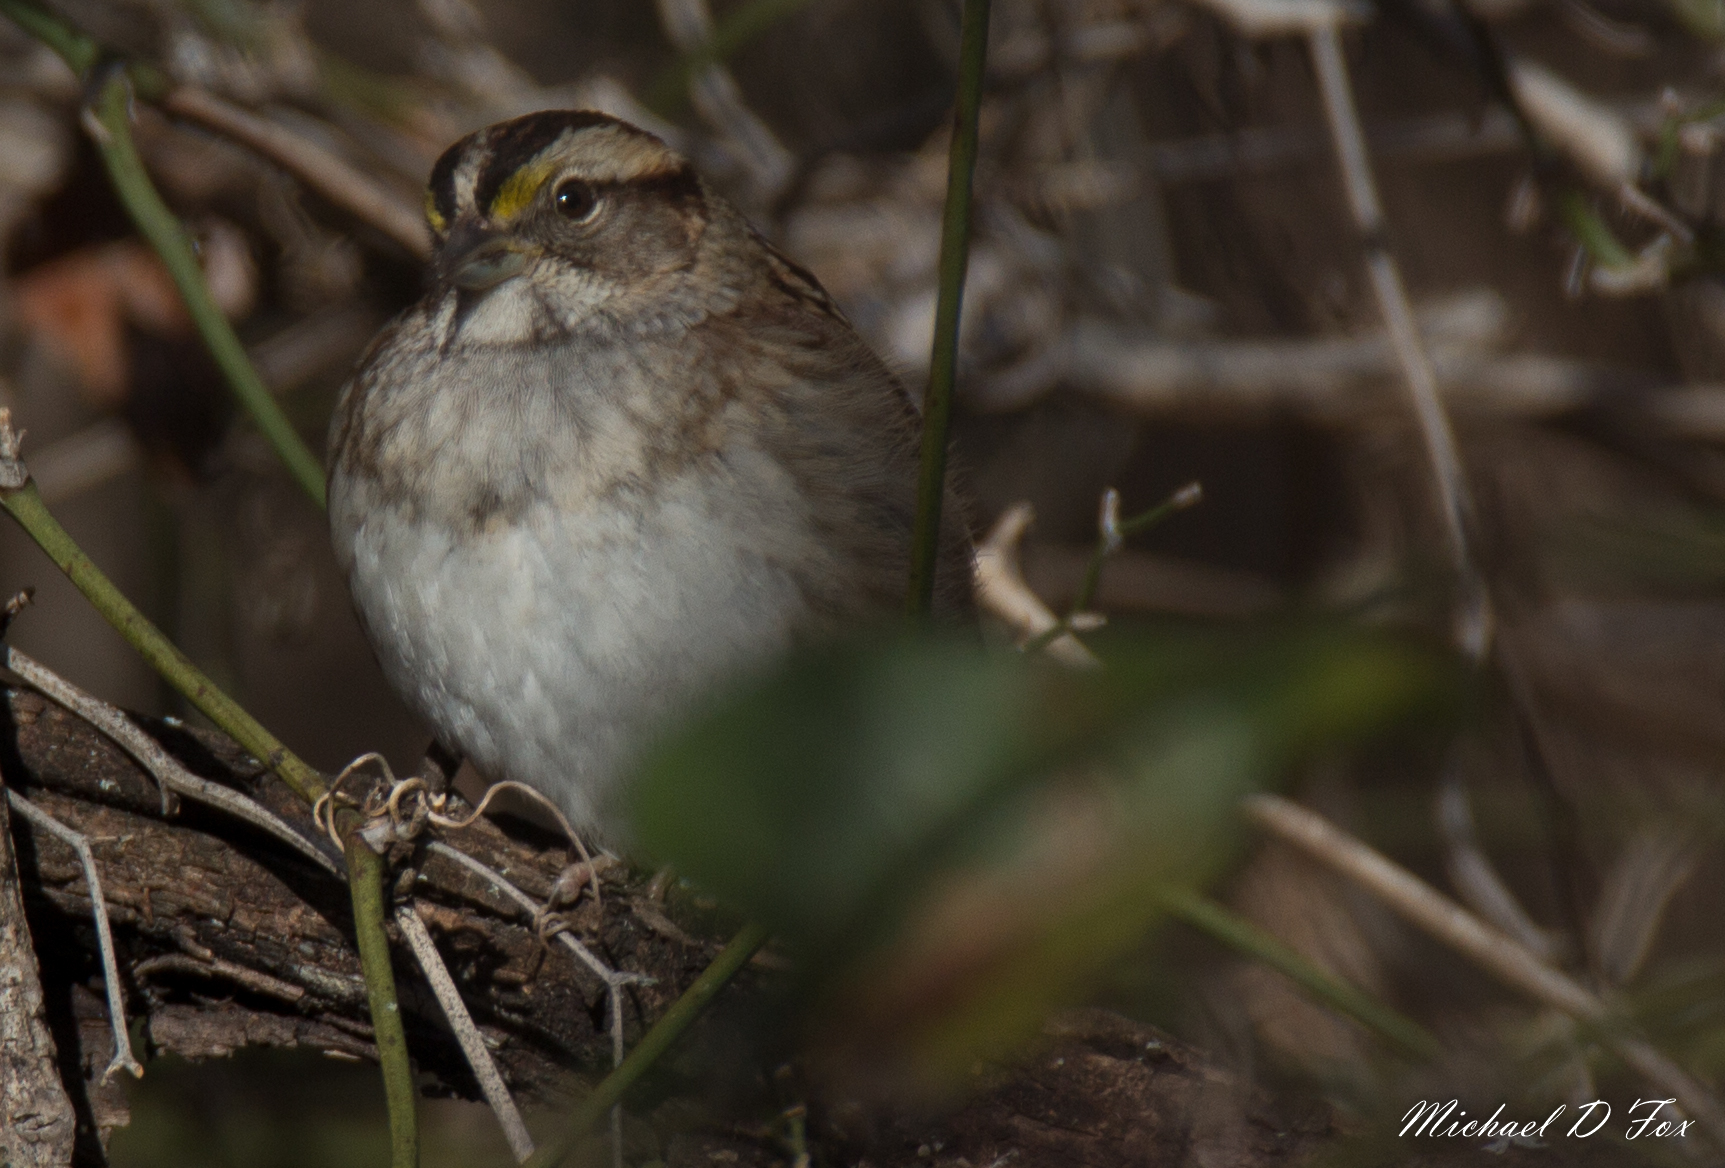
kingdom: Animalia
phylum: Chordata
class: Aves
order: Passeriformes
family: Passerellidae
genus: Zonotrichia
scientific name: Zonotrichia albicollis
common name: White-throated sparrow
